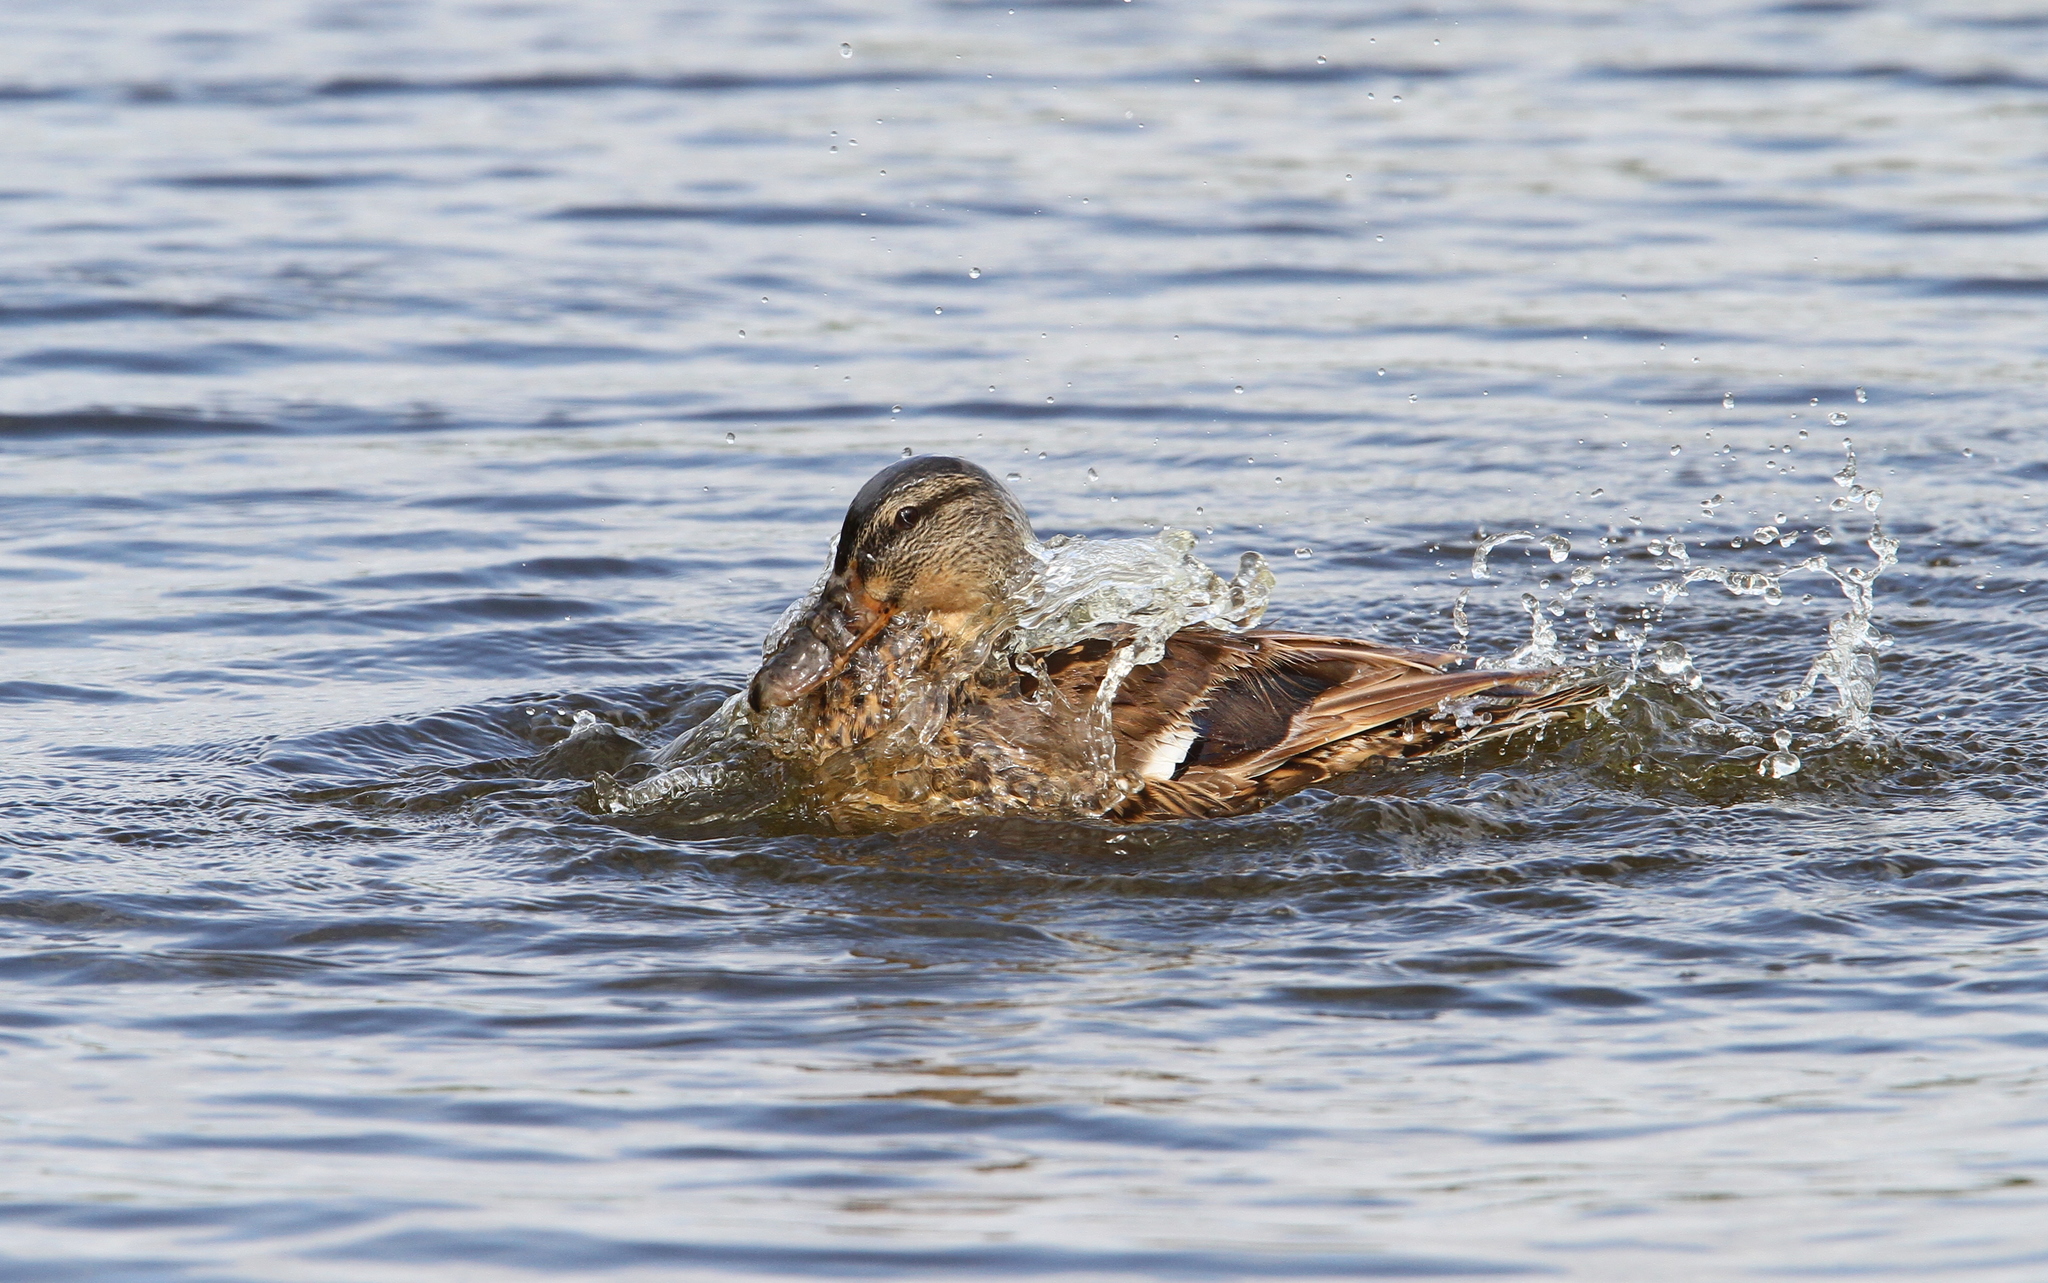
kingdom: Animalia
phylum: Chordata
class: Aves
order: Anseriformes
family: Anatidae
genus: Anas
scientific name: Anas platyrhynchos
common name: Mallard
